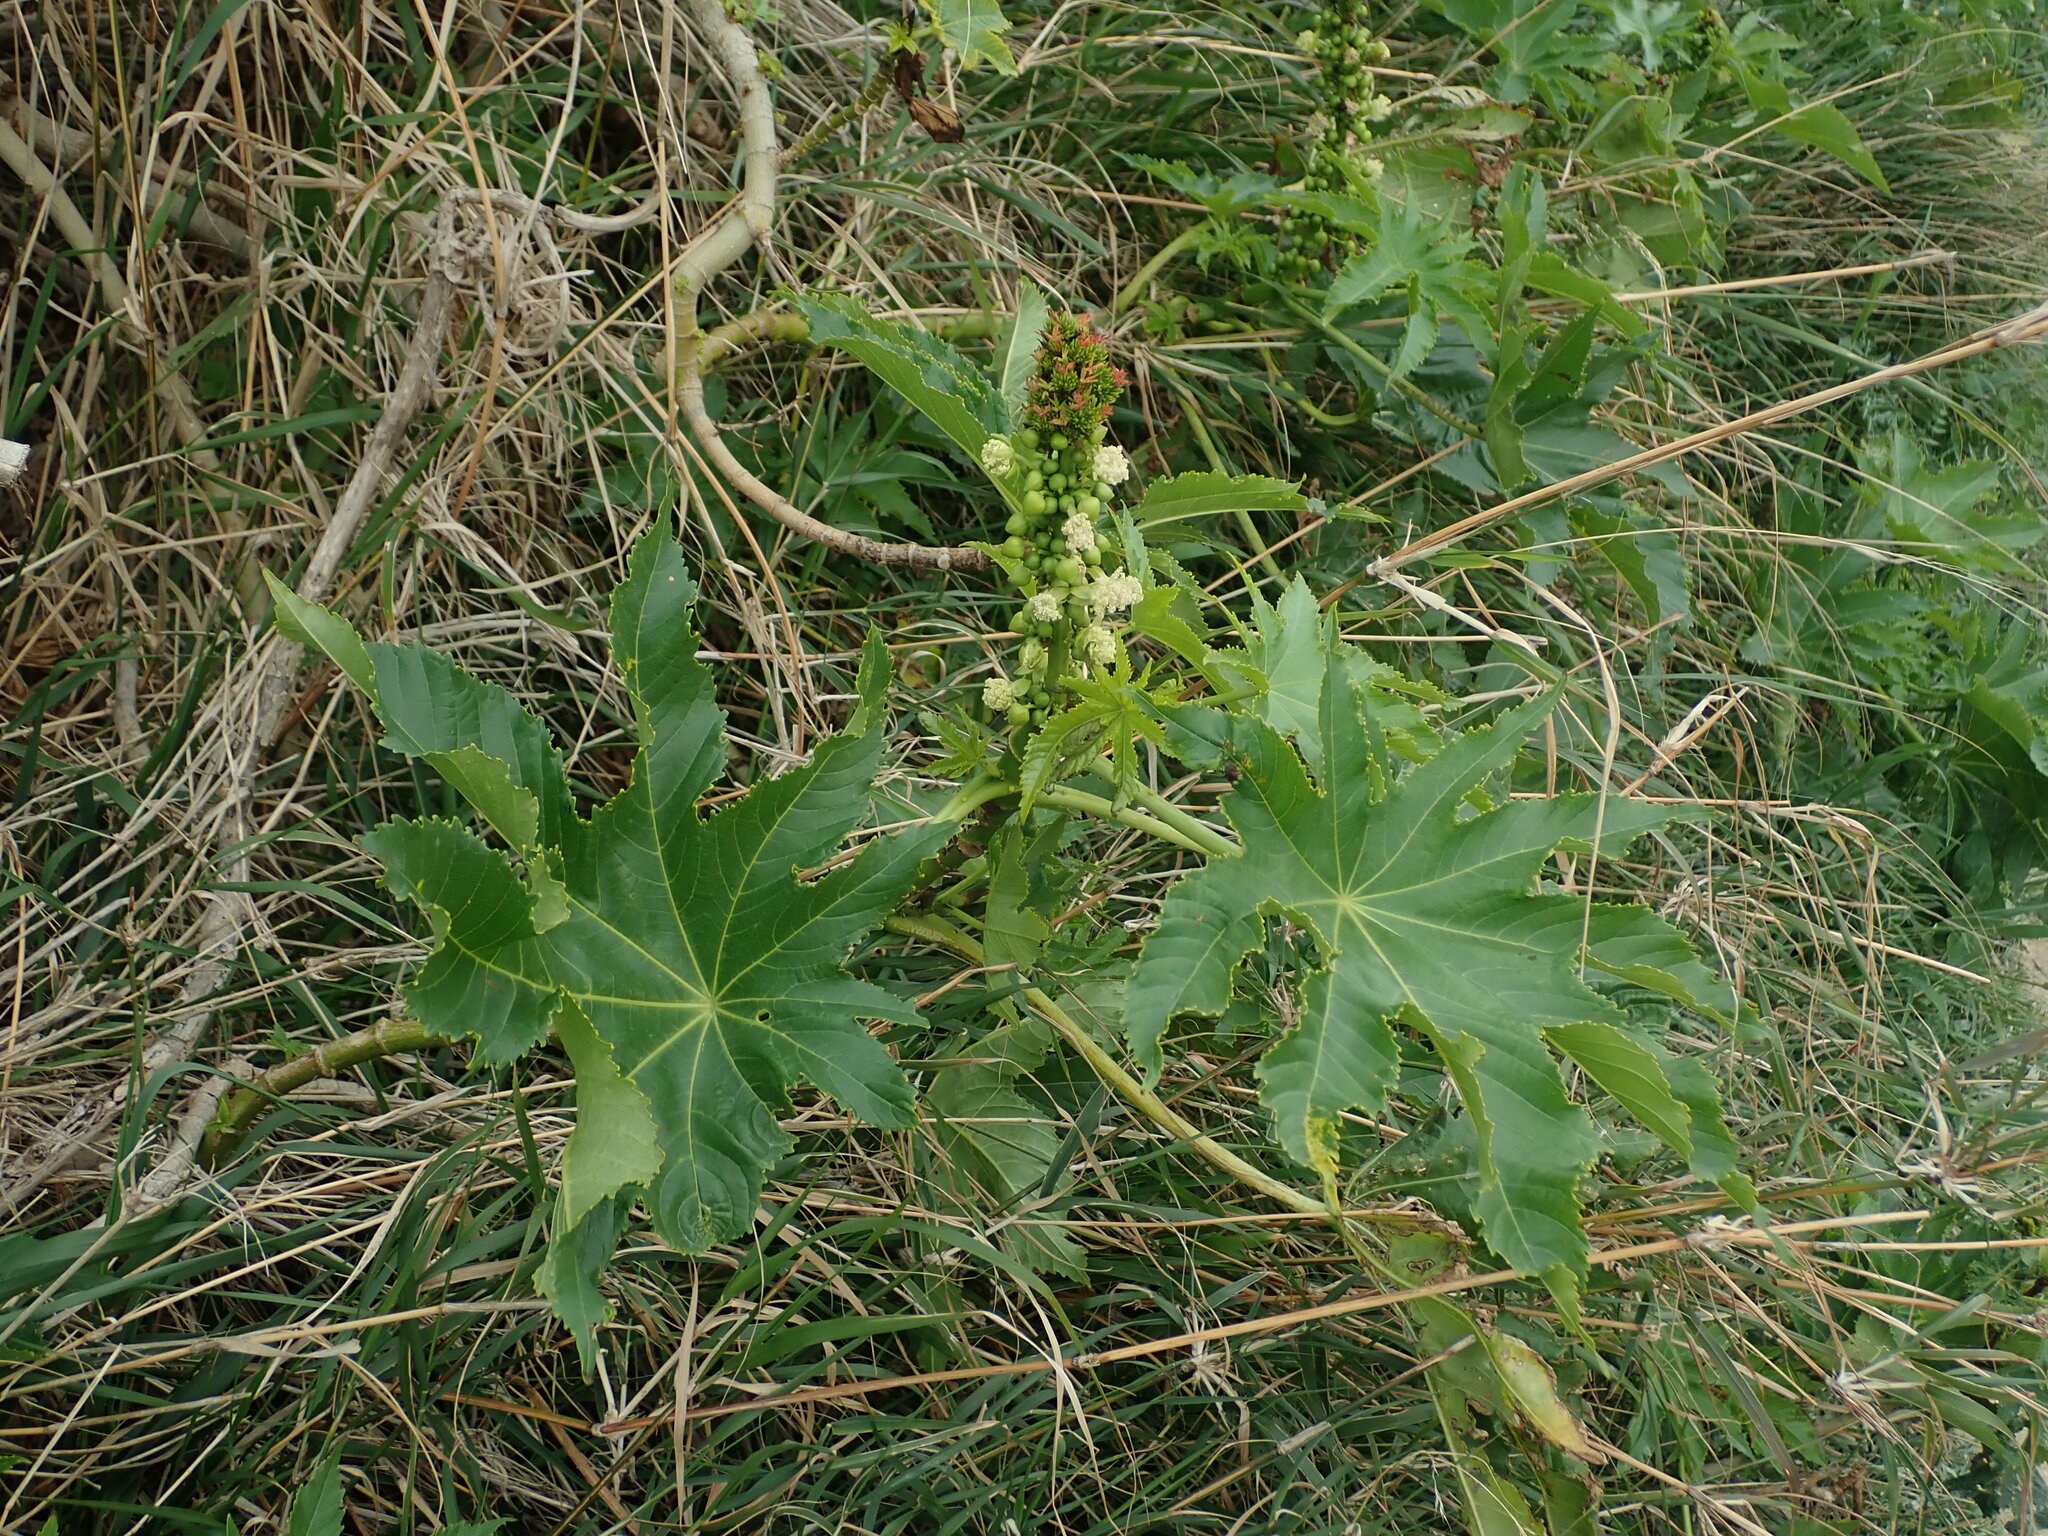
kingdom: Plantae
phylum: Tracheophyta
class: Magnoliopsida
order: Malpighiales
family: Euphorbiaceae
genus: Ricinus
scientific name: Ricinus communis
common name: Castor-oil-plant
